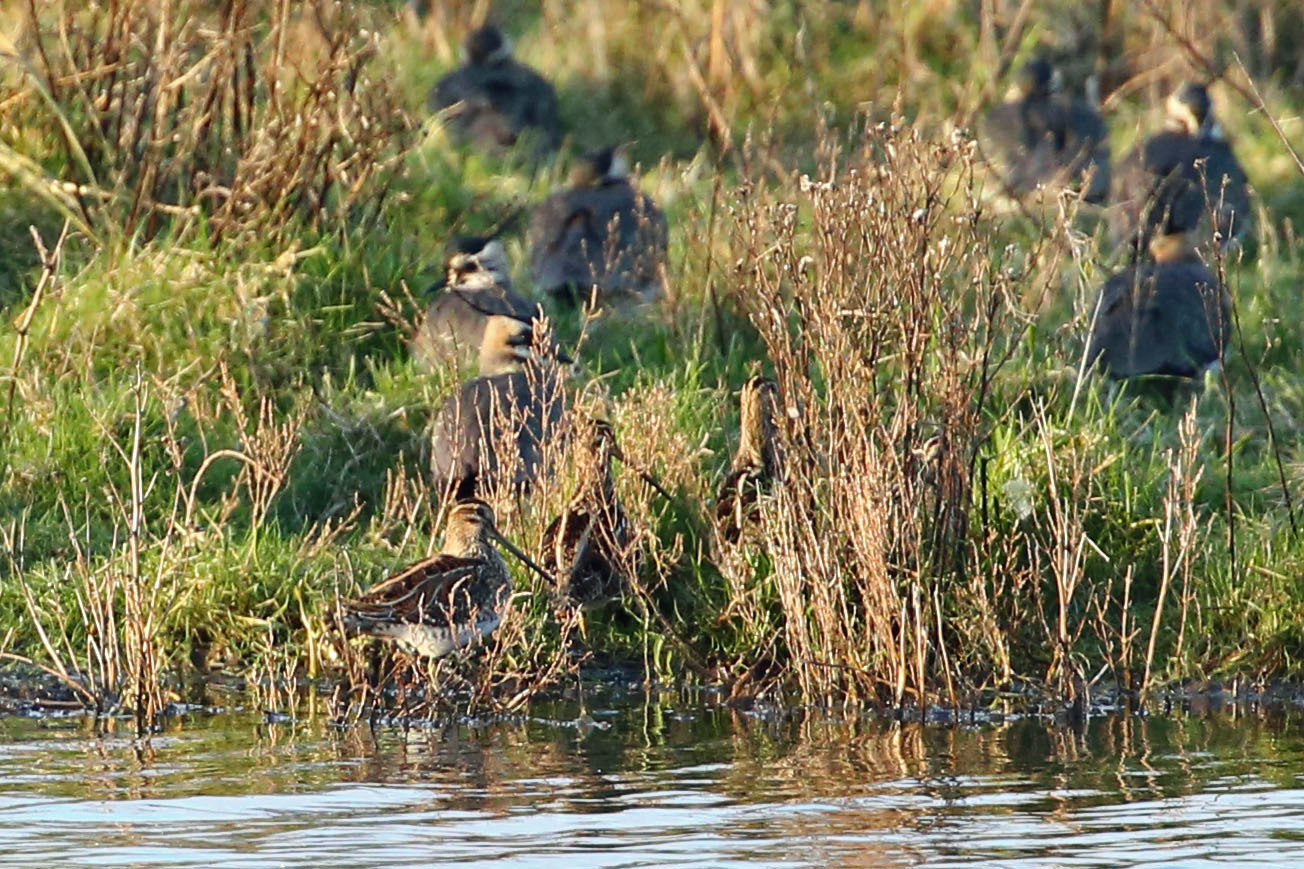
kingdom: Animalia
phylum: Chordata
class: Aves
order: Charadriiformes
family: Scolopacidae
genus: Gallinago
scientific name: Gallinago gallinago
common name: Common snipe
